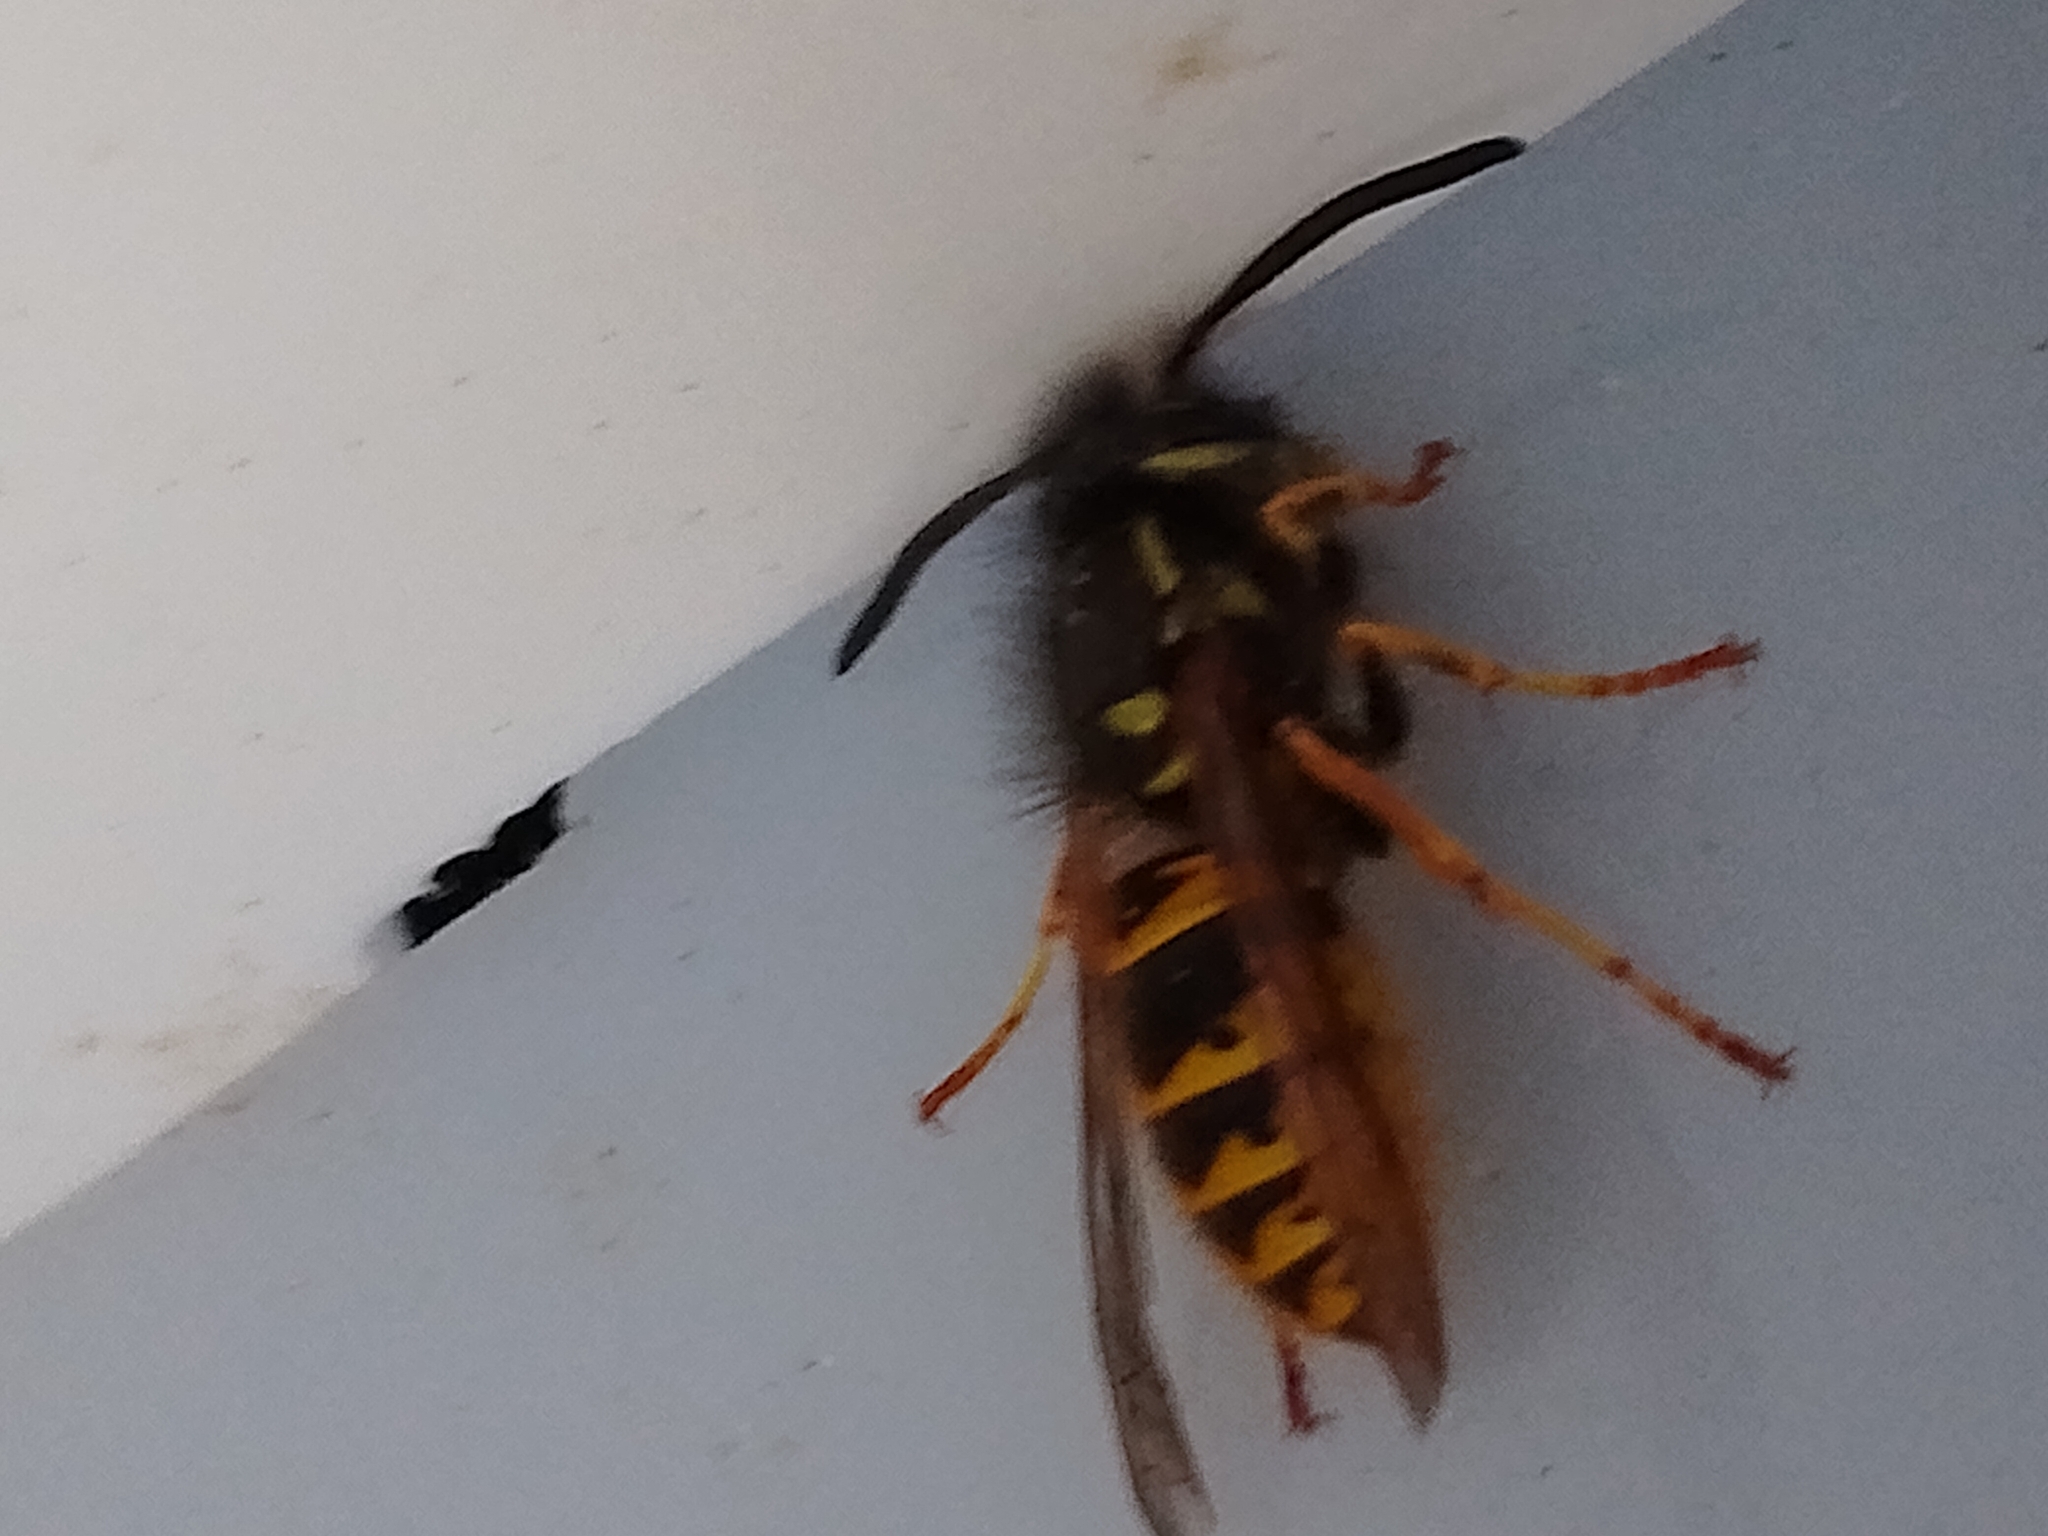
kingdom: Animalia
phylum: Arthropoda
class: Insecta
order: Hymenoptera
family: Vespidae
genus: Vespula
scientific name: Vespula vulgaris
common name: Common wasp
